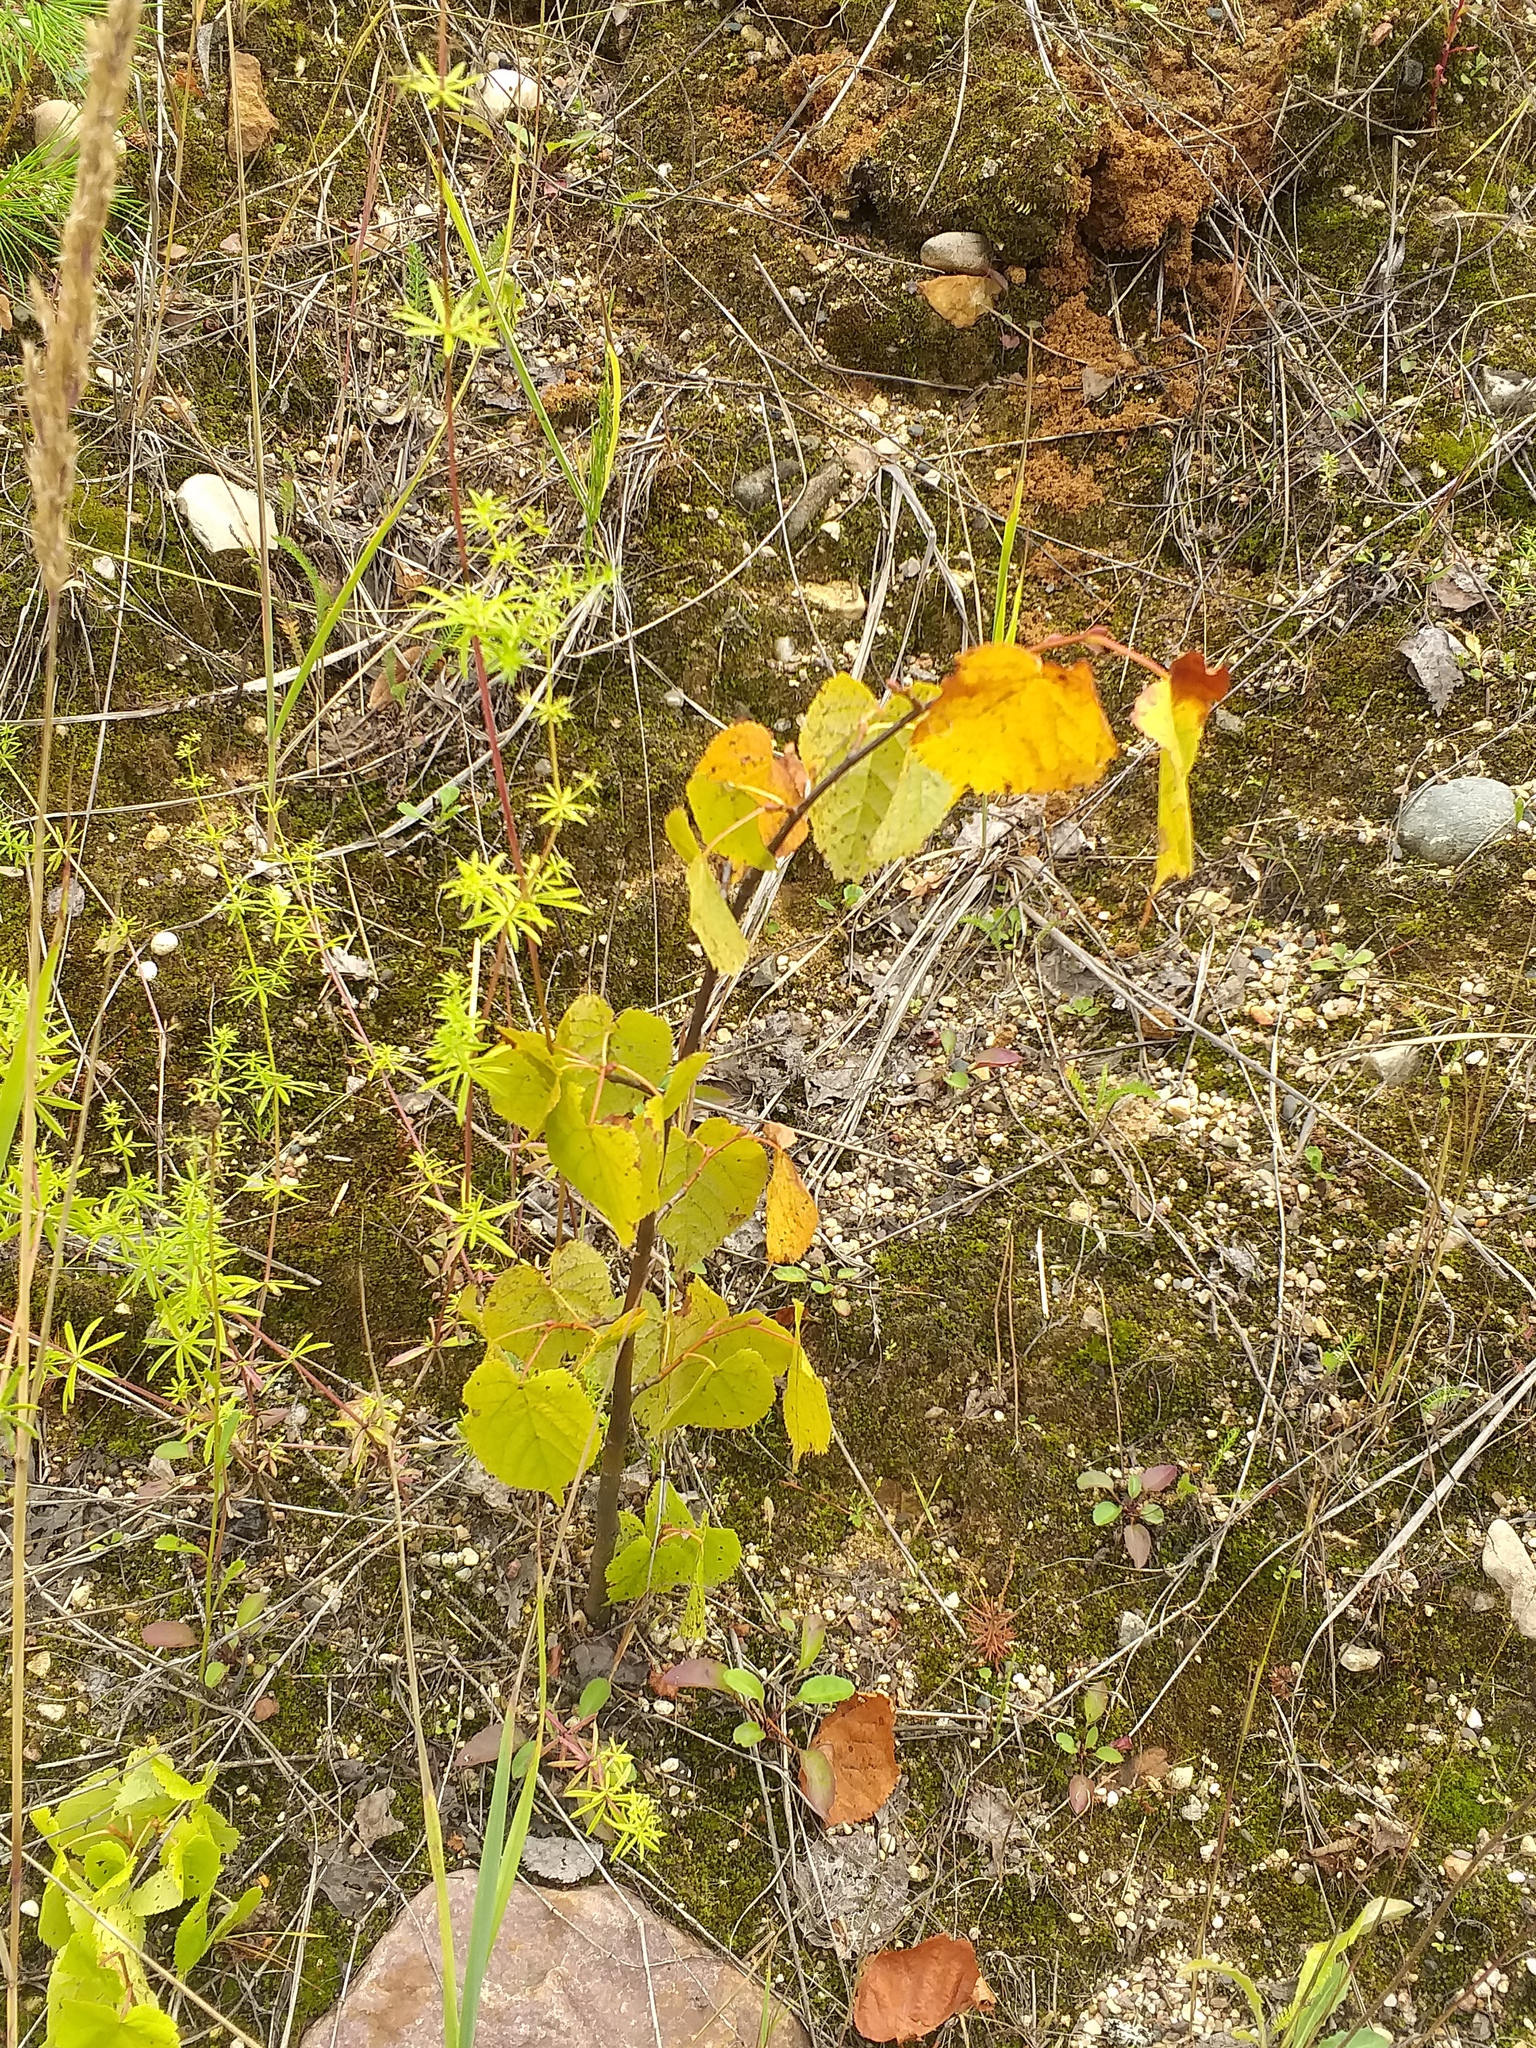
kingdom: Plantae
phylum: Tracheophyta
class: Magnoliopsida
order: Malvales
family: Malvaceae
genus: Tilia
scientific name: Tilia cordata
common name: Small-leaved lime
